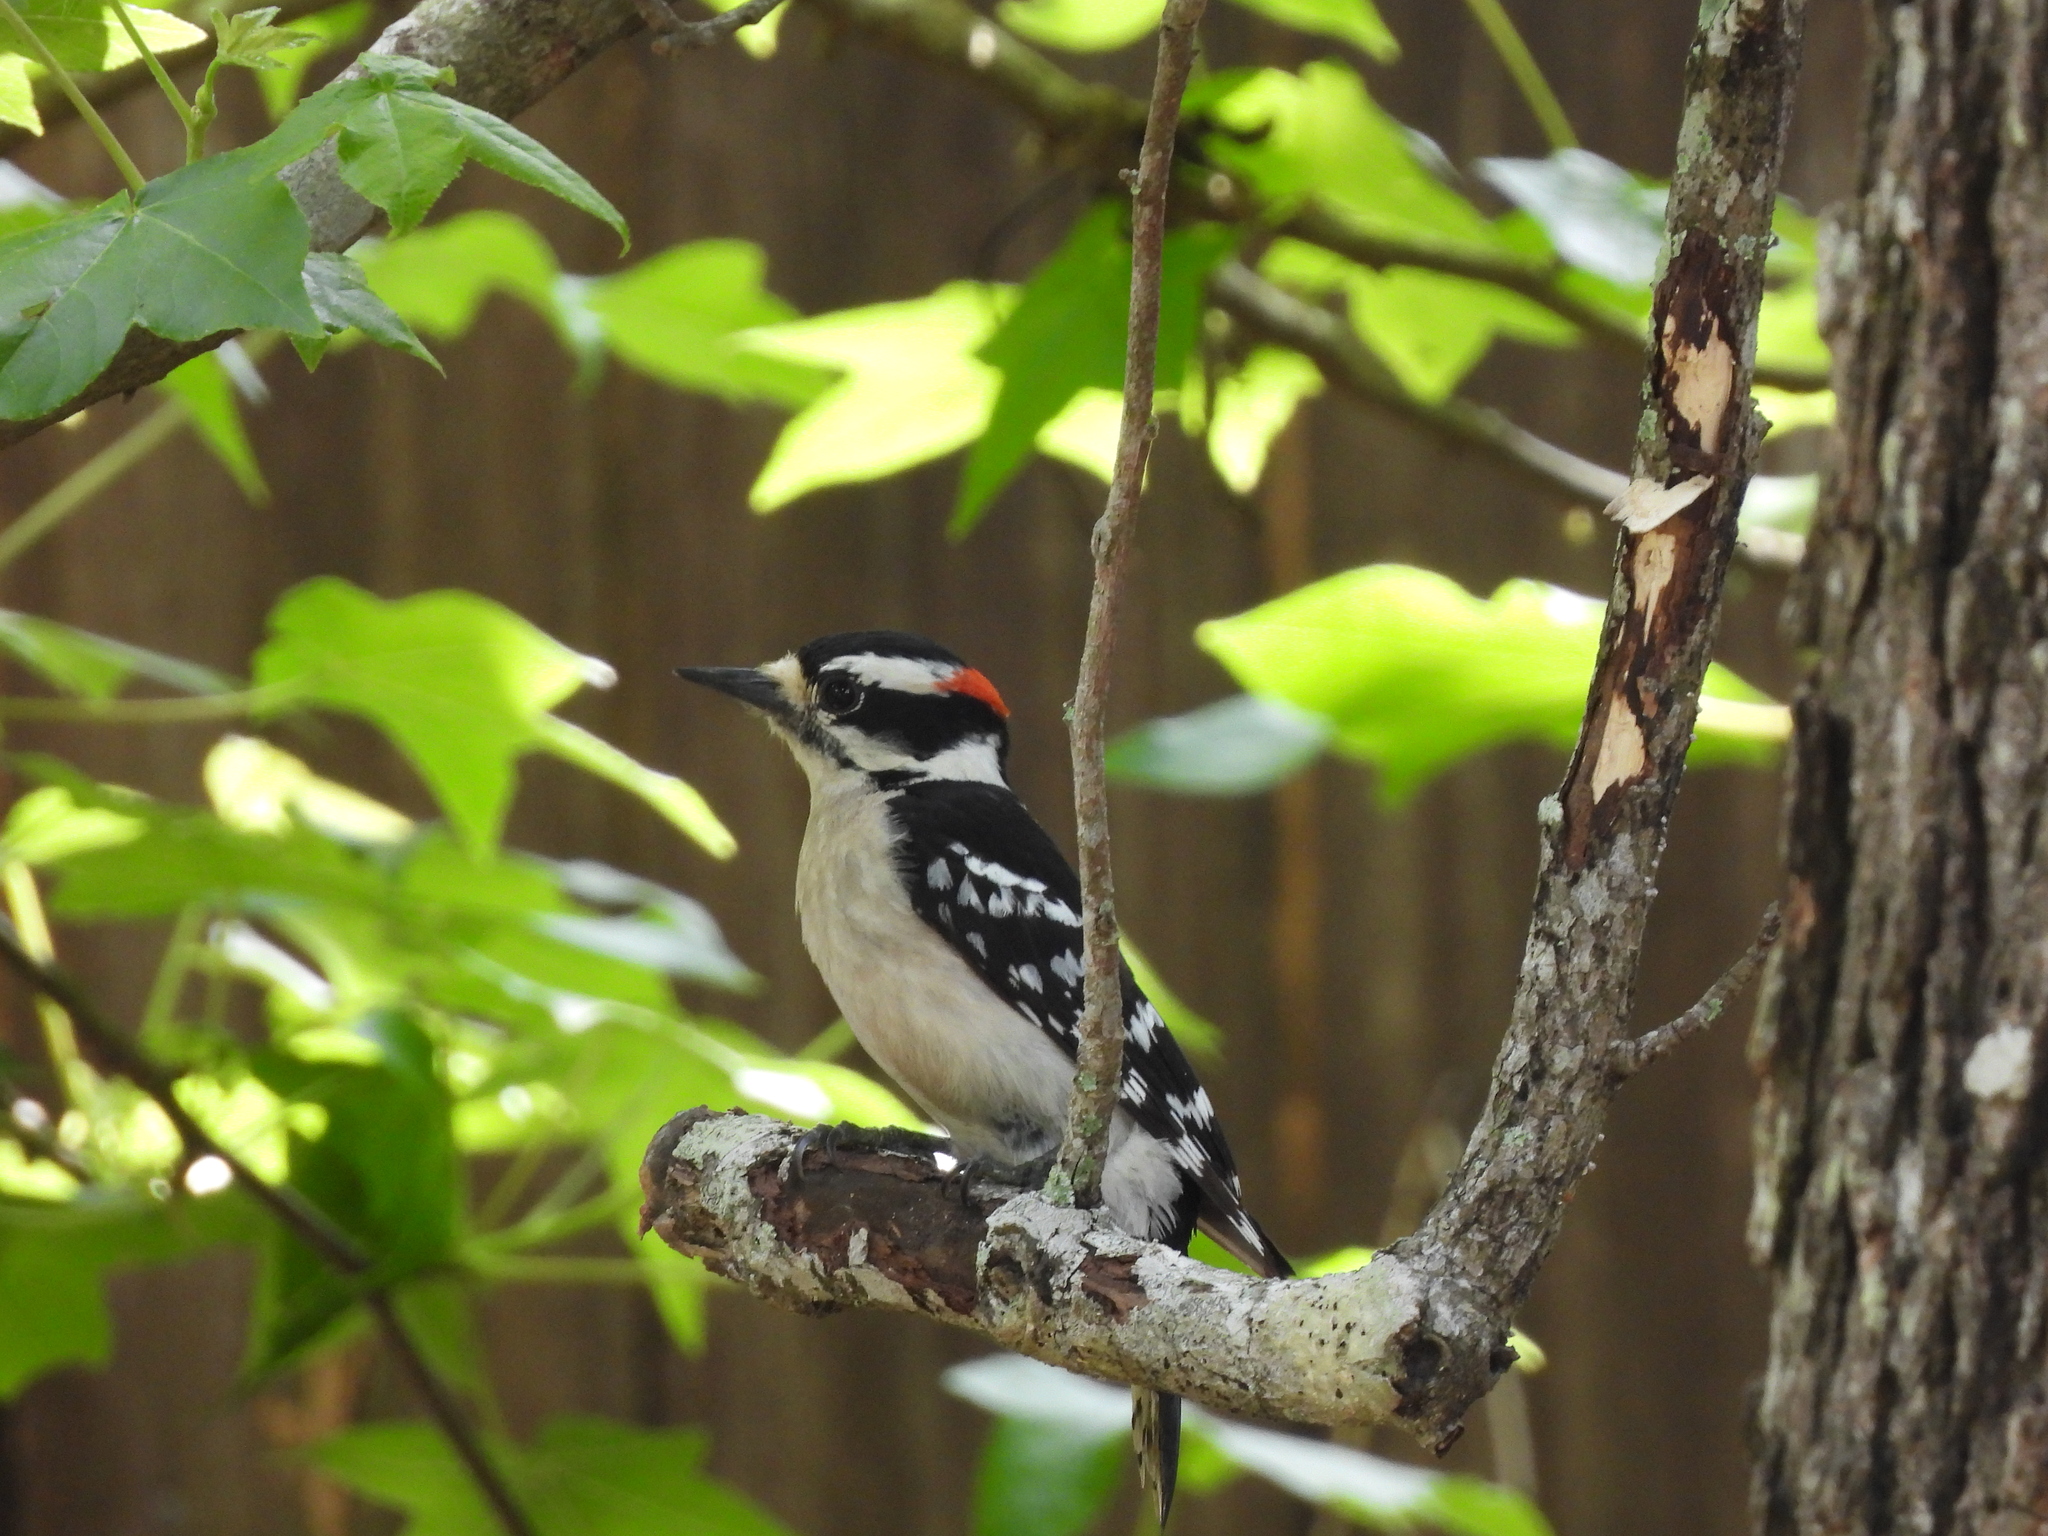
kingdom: Animalia
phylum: Chordata
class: Aves
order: Piciformes
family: Picidae
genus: Dryobates
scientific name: Dryobates pubescens
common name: Downy woodpecker
